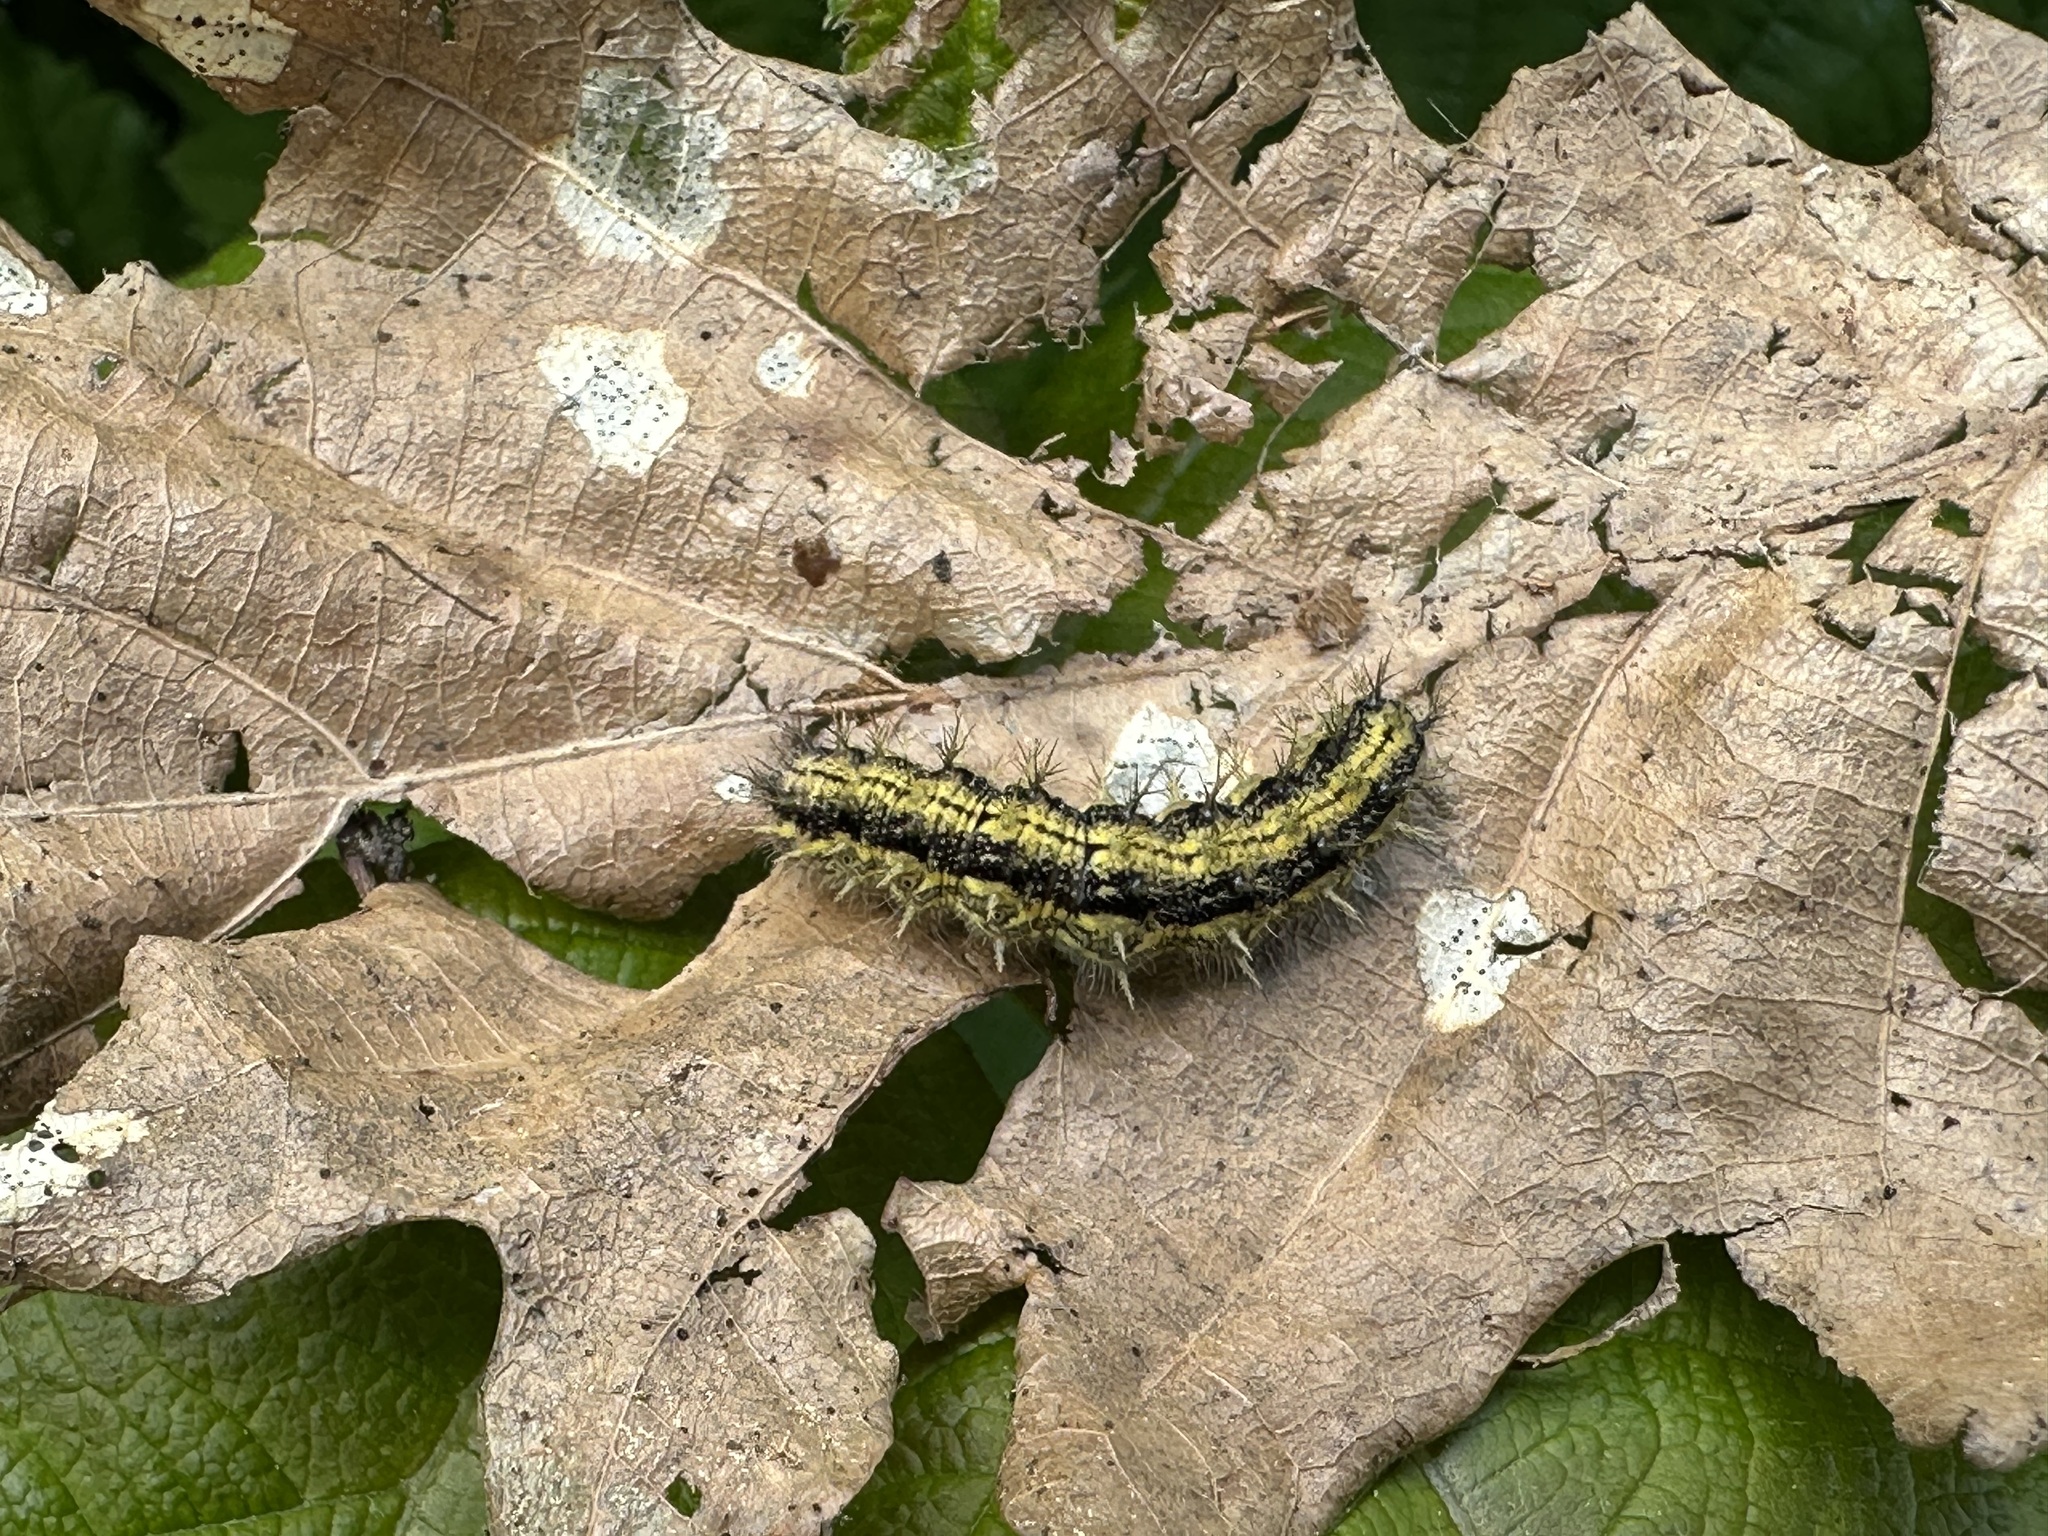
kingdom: Animalia
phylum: Arthropoda
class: Insecta
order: Lepidoptera
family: Nymphalidae
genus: Aglais
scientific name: Aglais urticae
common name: Small tortoiseshell
